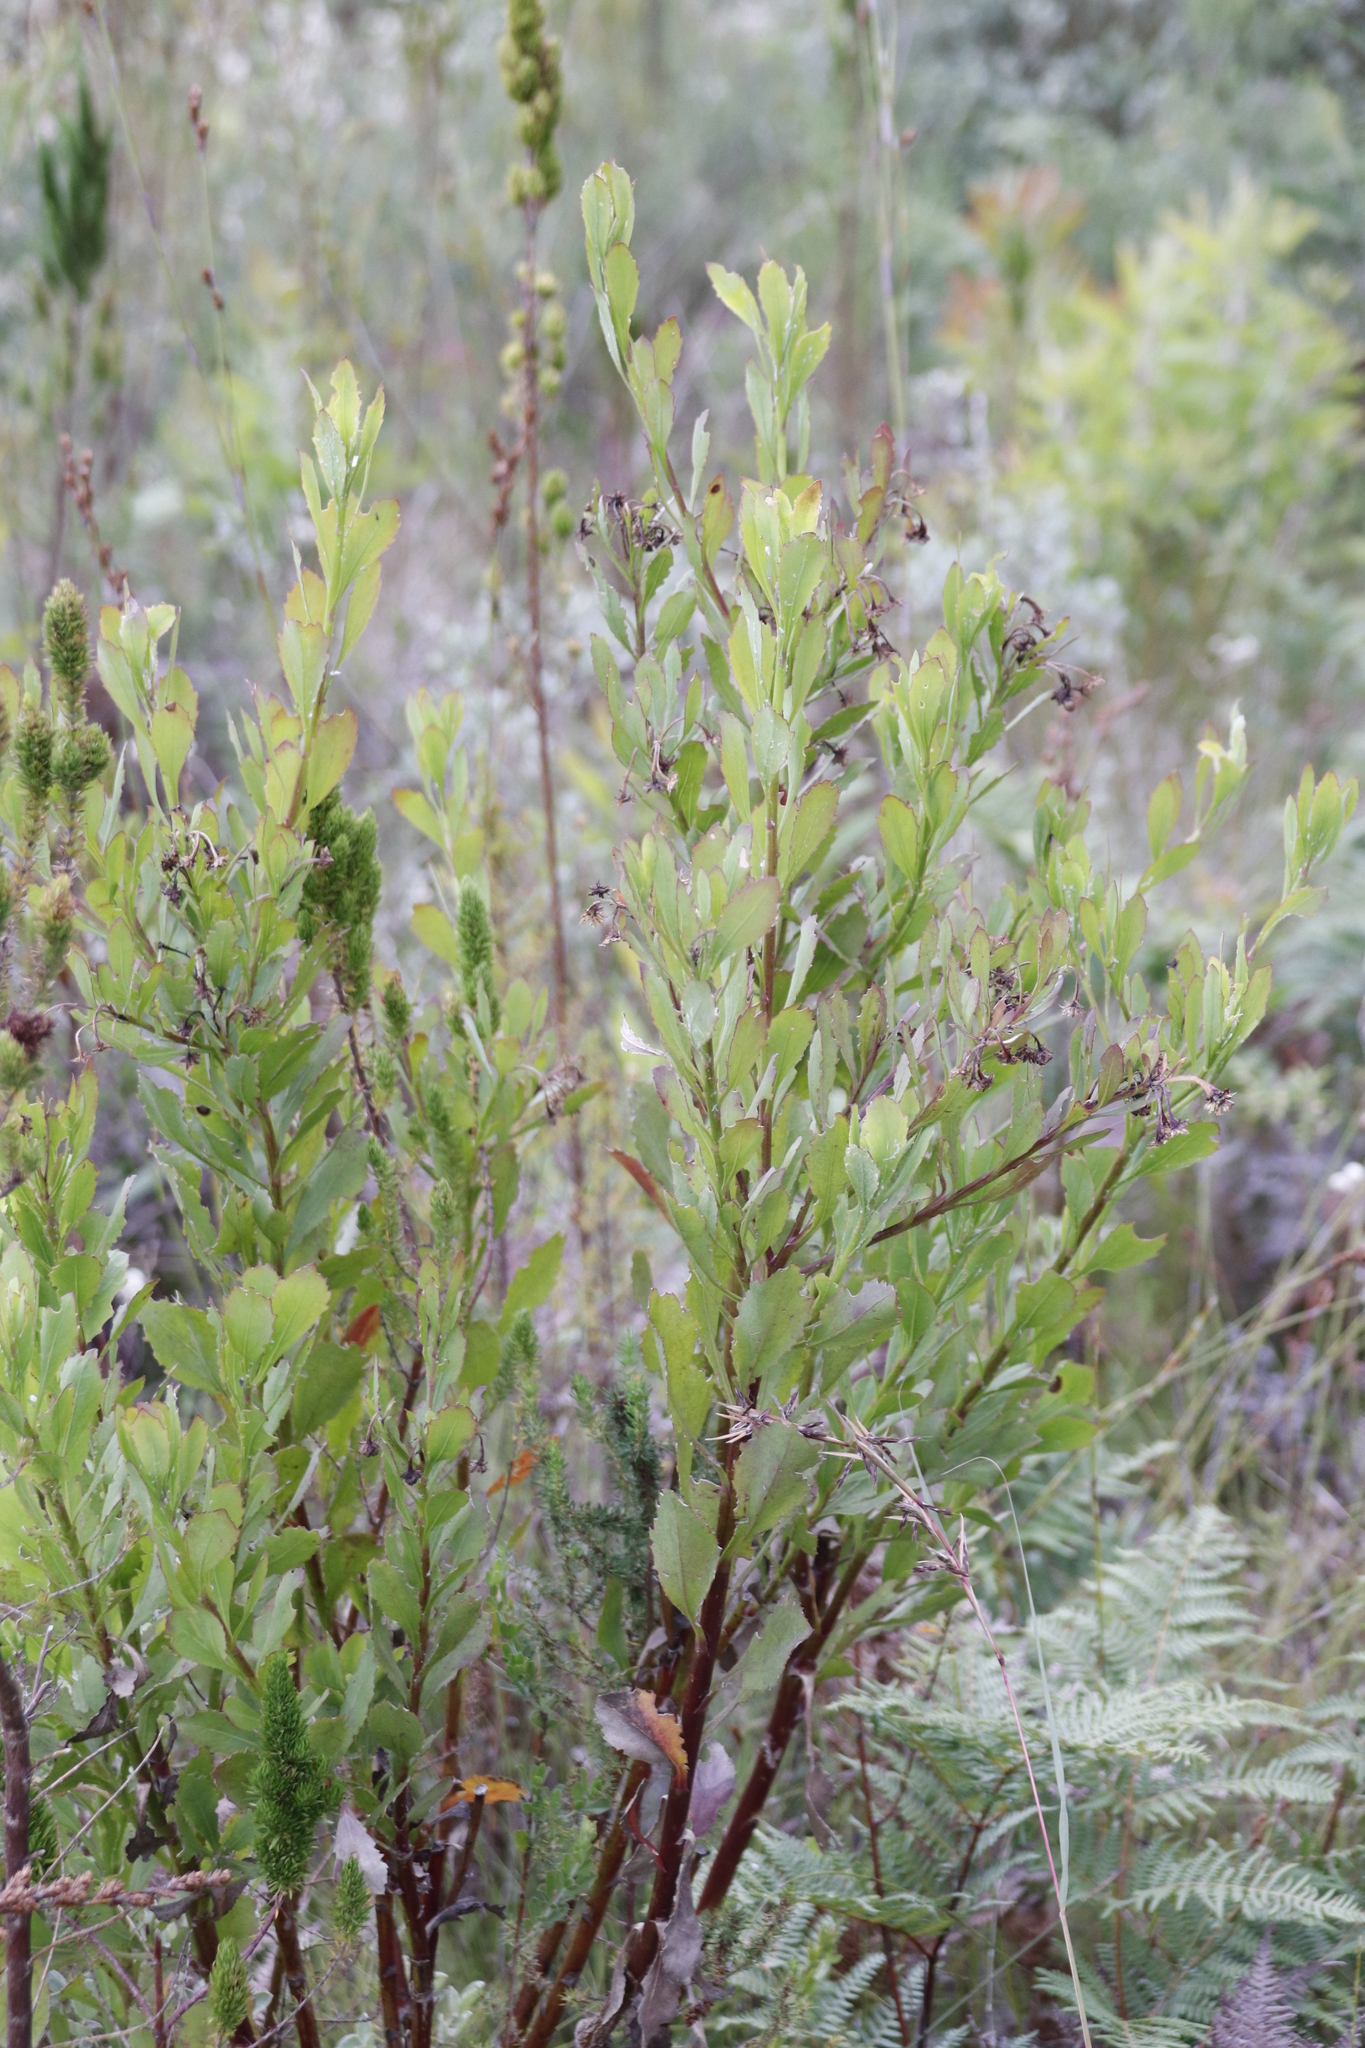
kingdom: Plantae
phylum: Tracheophyta
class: Magnoliopsida
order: Asterales
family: Asteraceae
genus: Osteospermum
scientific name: Osteospermum moniliferum
